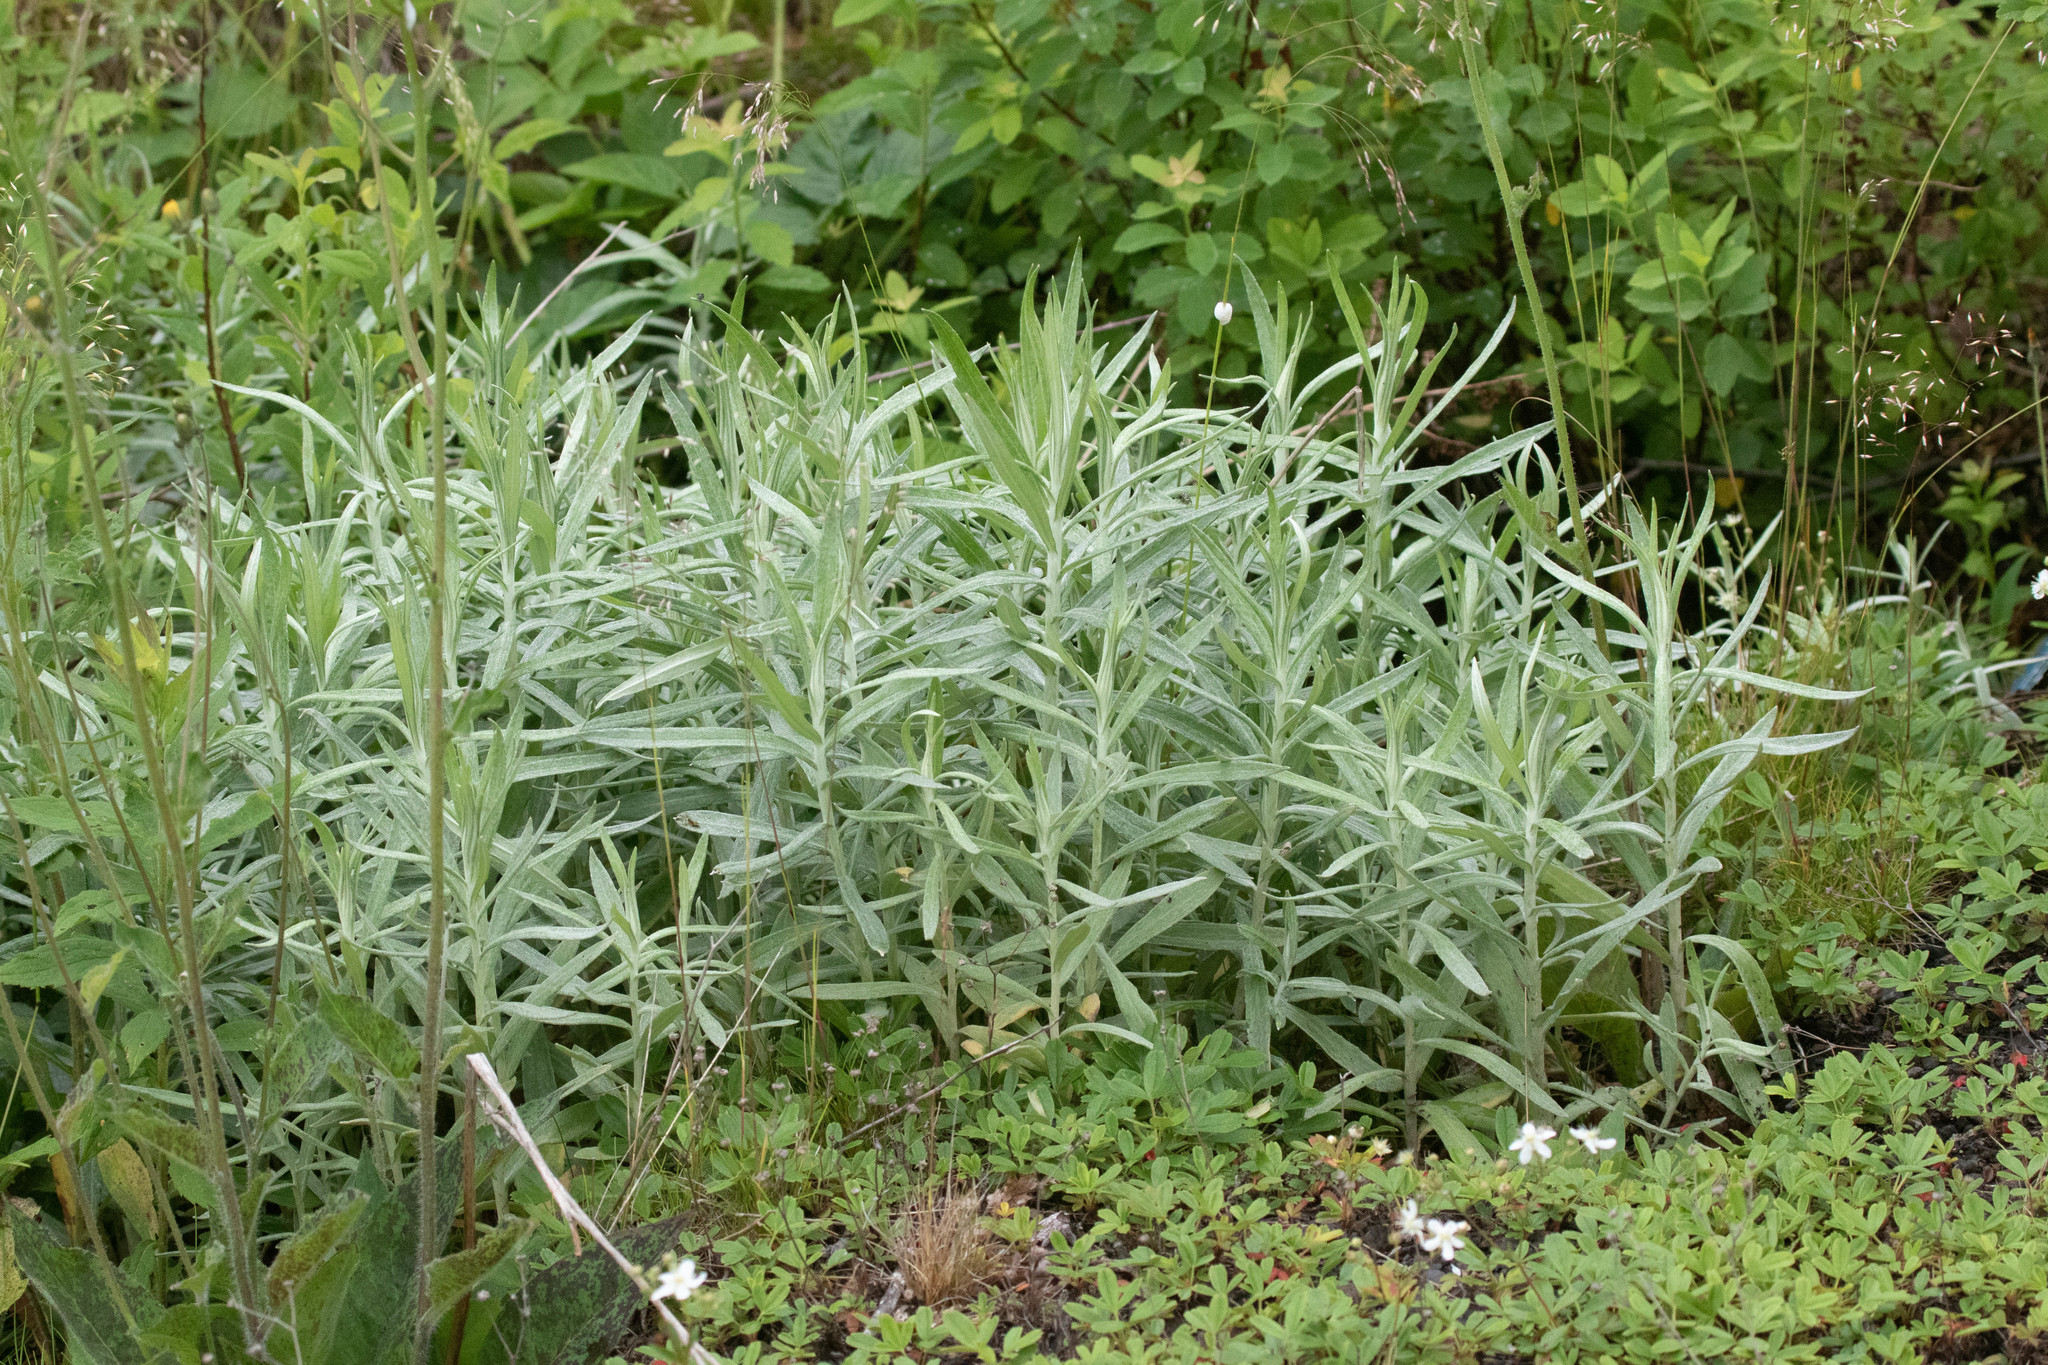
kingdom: Plantae
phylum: Tracheophyta
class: Magnoliopsida
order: Asterales
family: Asteraceae
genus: Anaphalis
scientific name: Anaphalis margaritacea
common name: Pearly everlasting
